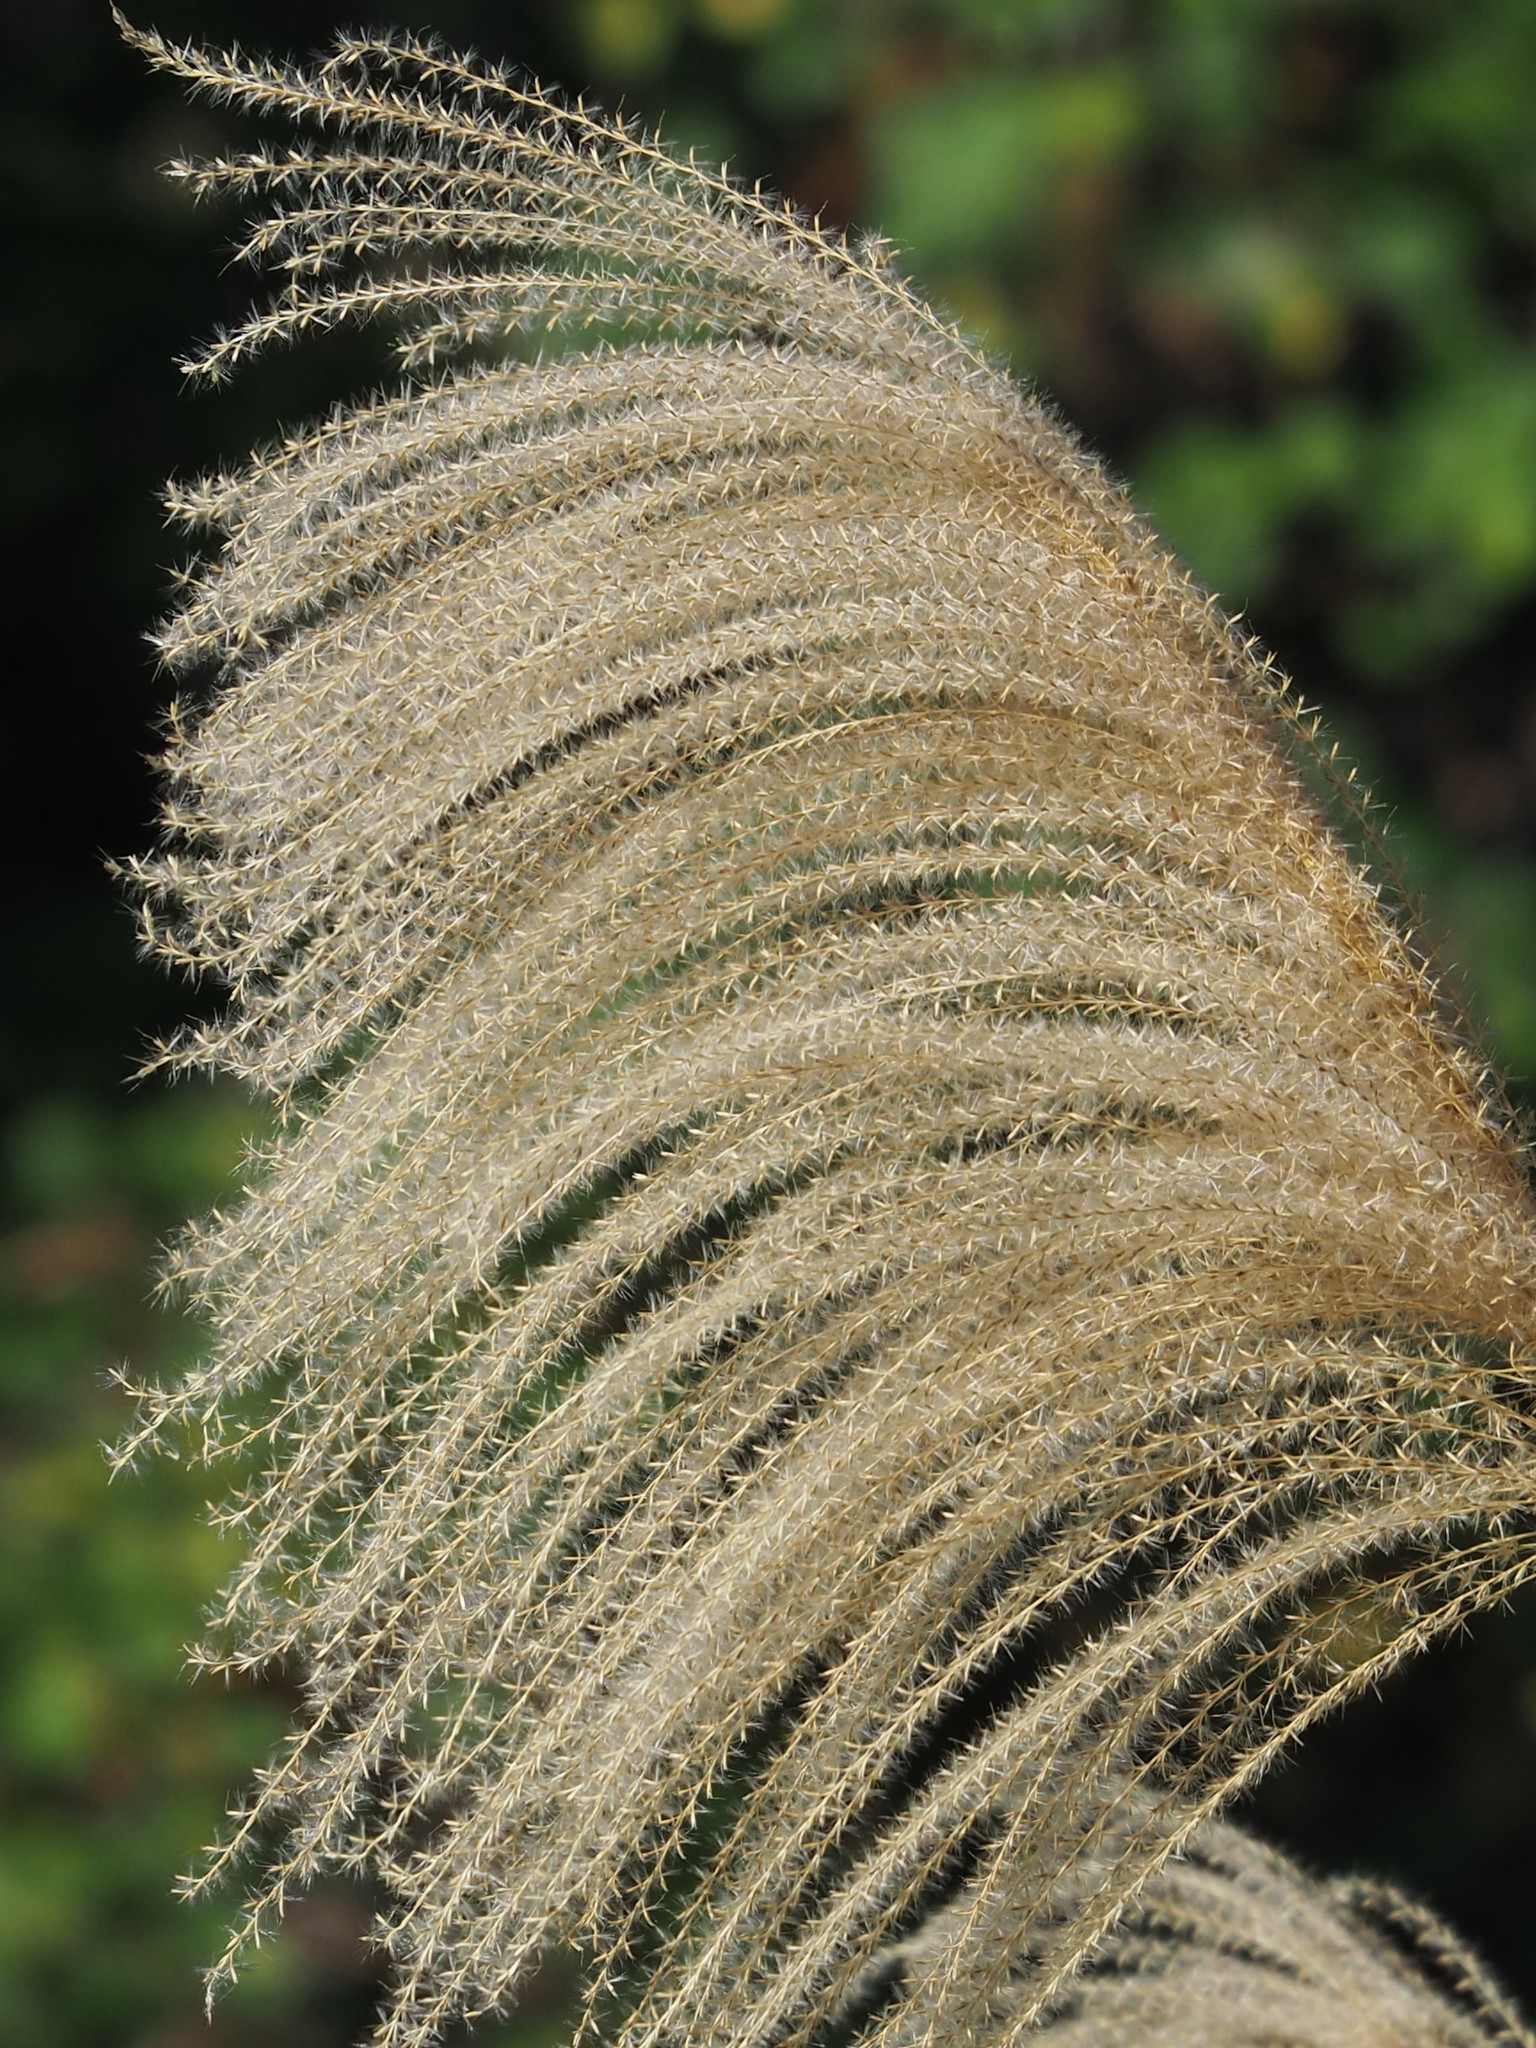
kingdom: Plantae
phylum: Tracheophyta
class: Liliopsida
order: Poales
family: Poaceae
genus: Miscanthus
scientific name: Miscanthus sinensis
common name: Chinese silvergrass
